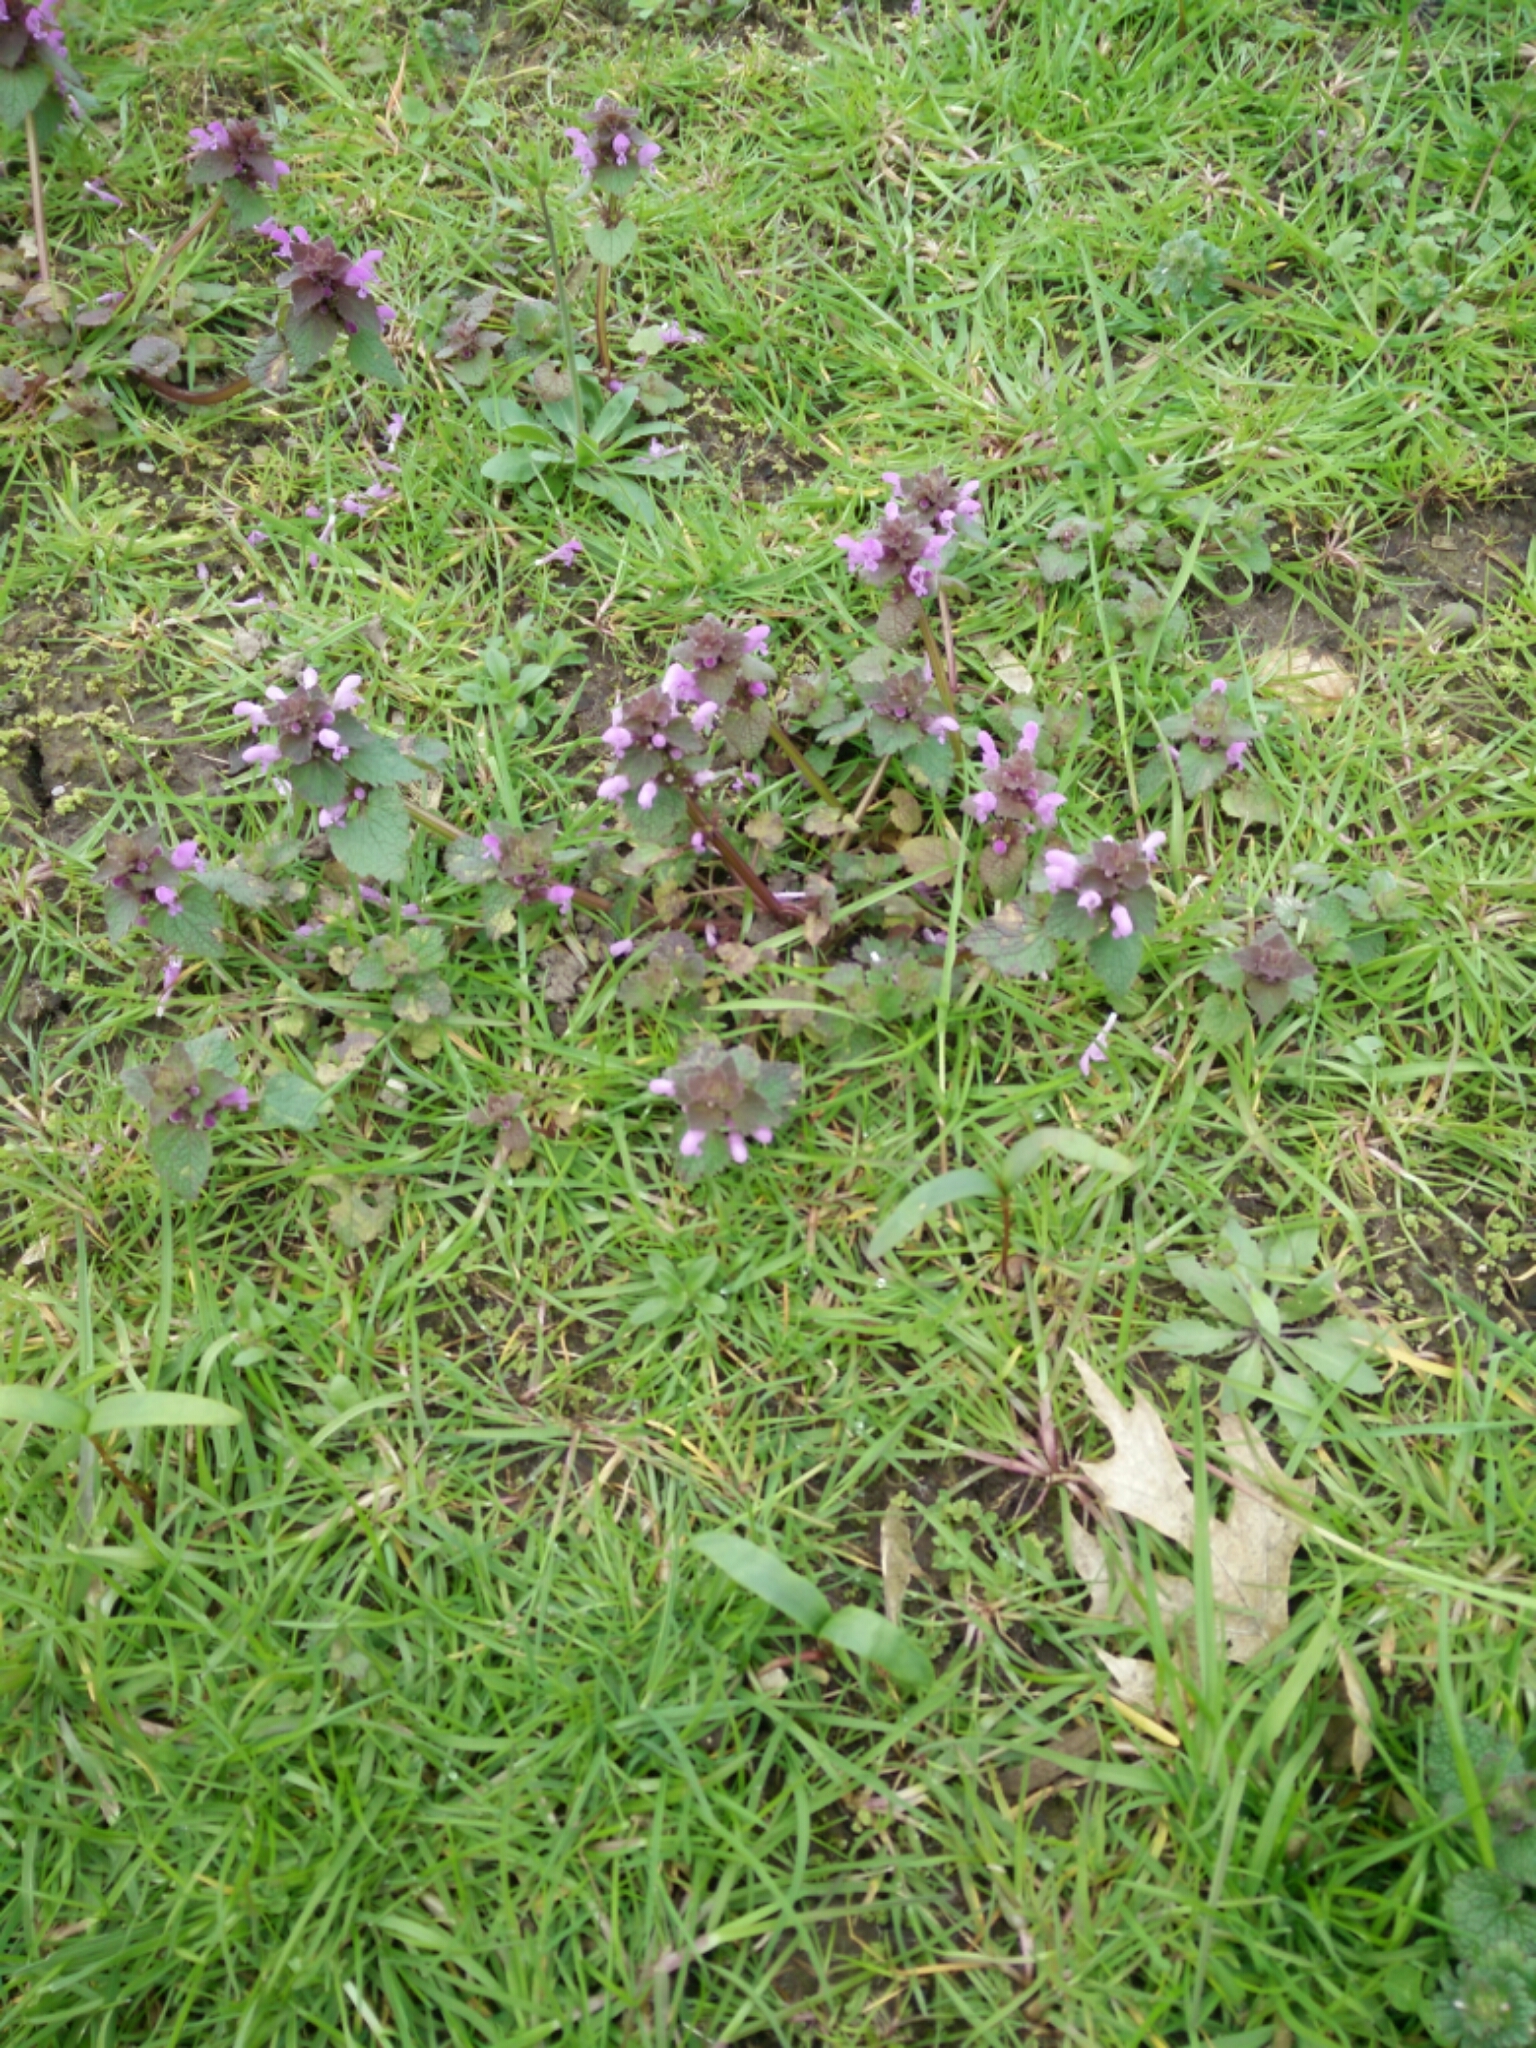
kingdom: Plantae
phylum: Tracheophyta
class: Magnoliopsida
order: Lamiales
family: Lamiaceae
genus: Lamium
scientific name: Lamium purpureum
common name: Red dead-nettle
